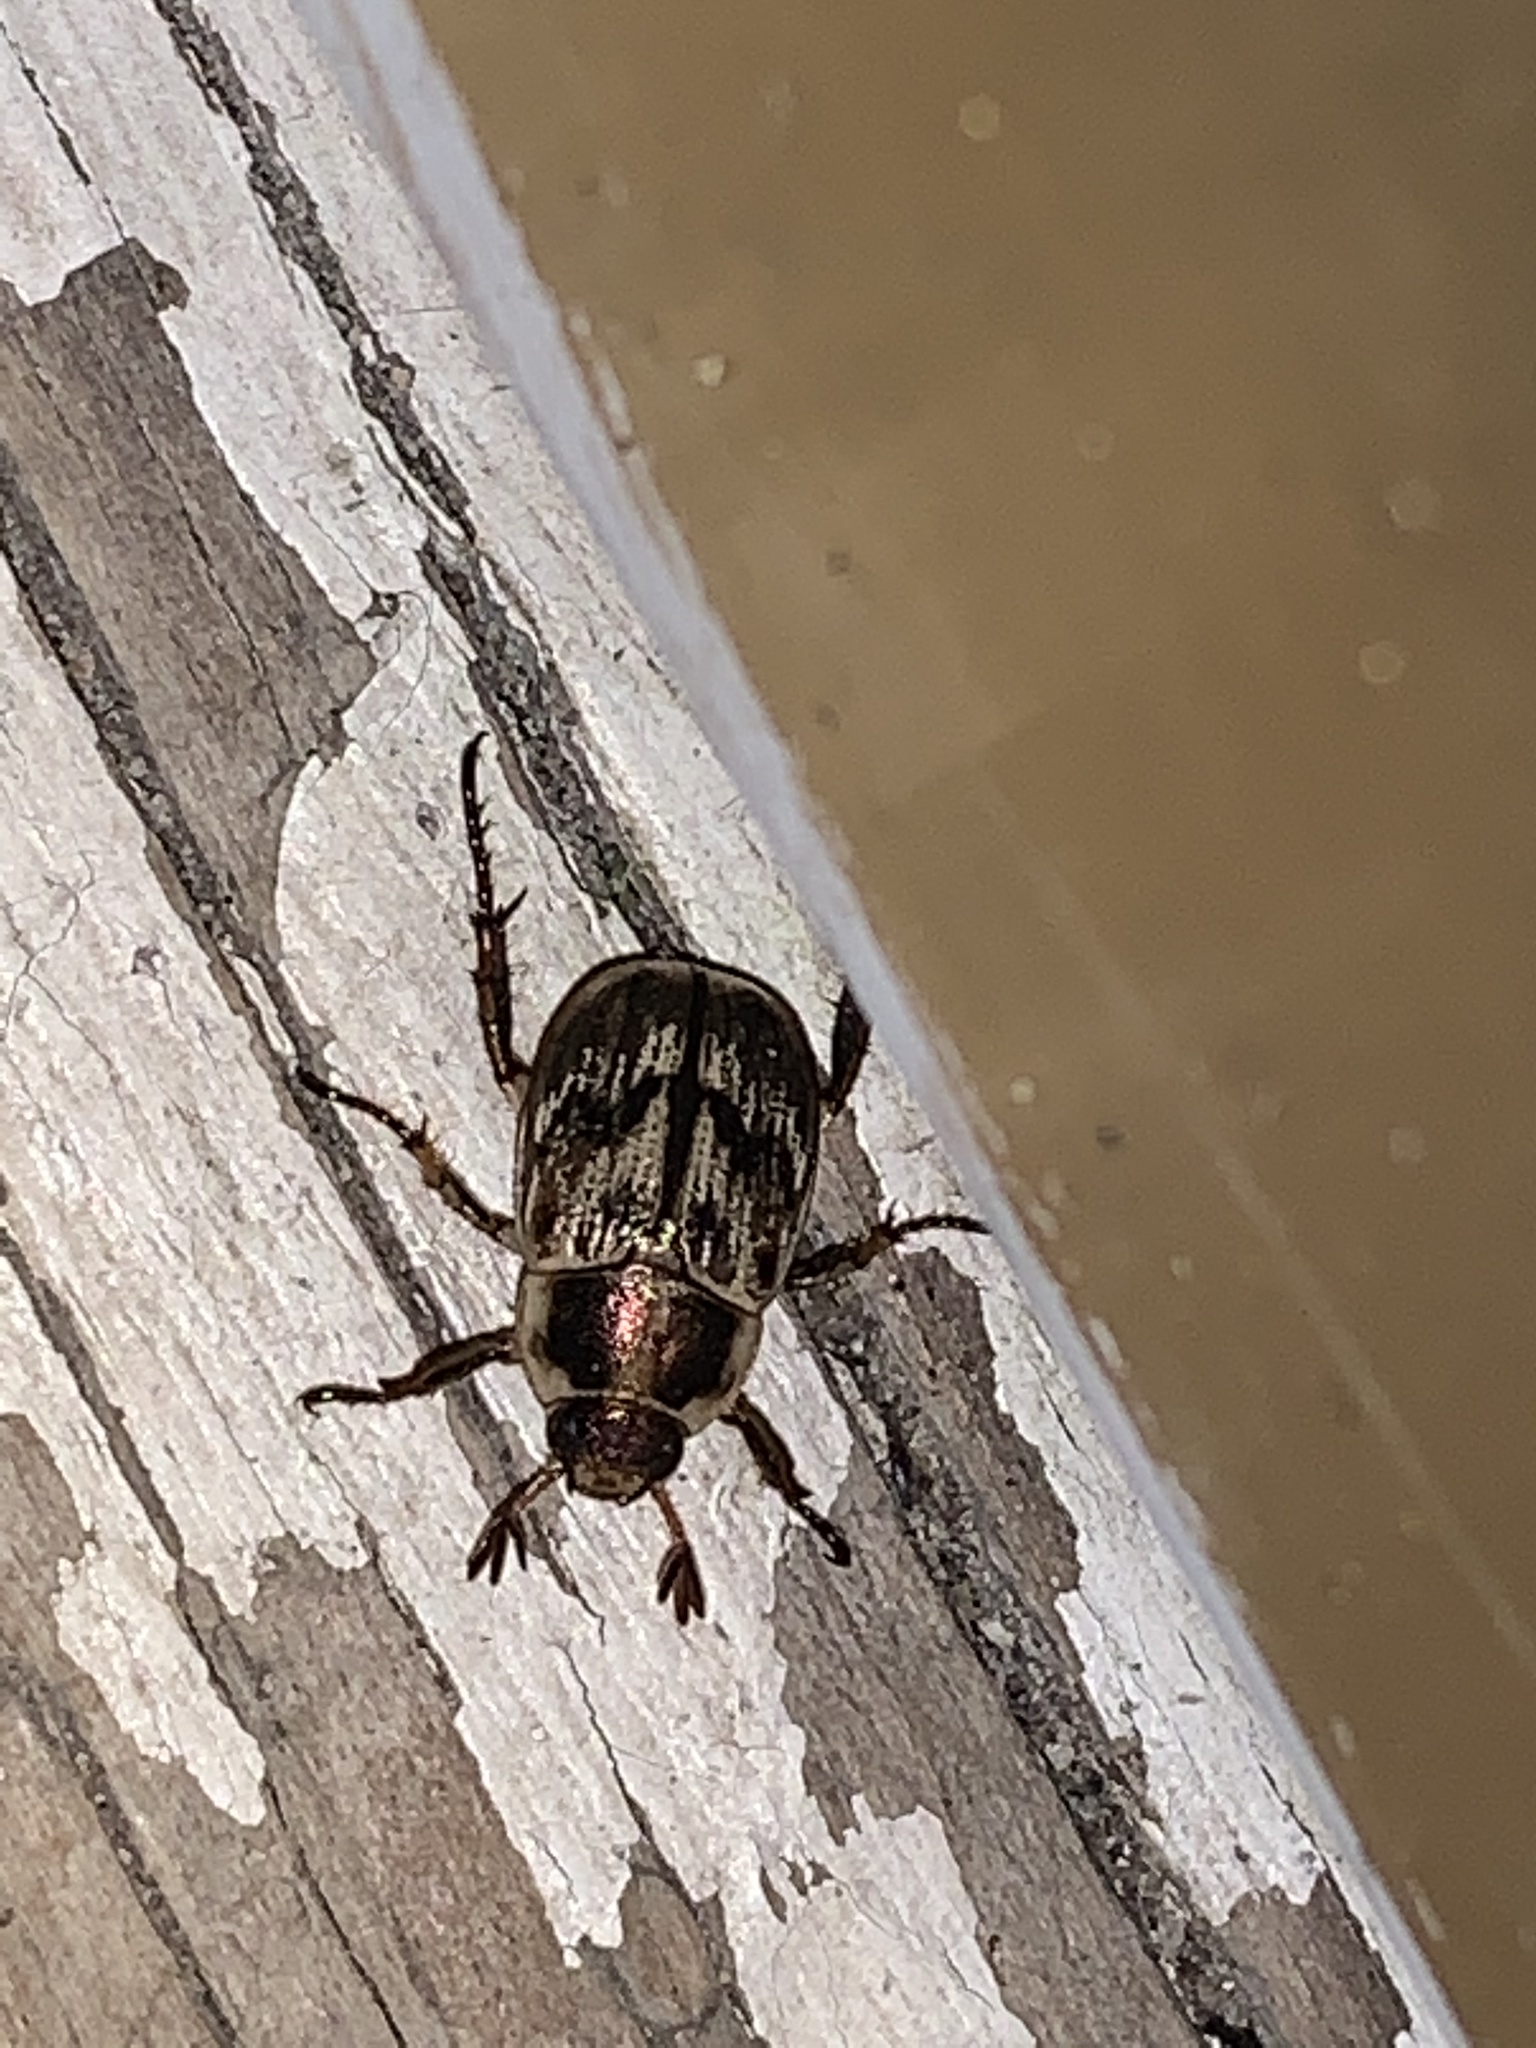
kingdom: Animalia
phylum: Arthropoda
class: Insecta
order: Coleoptera
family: Scarabaeidae
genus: Exomala
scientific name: Exomala orientalis
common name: Oriental beetle
